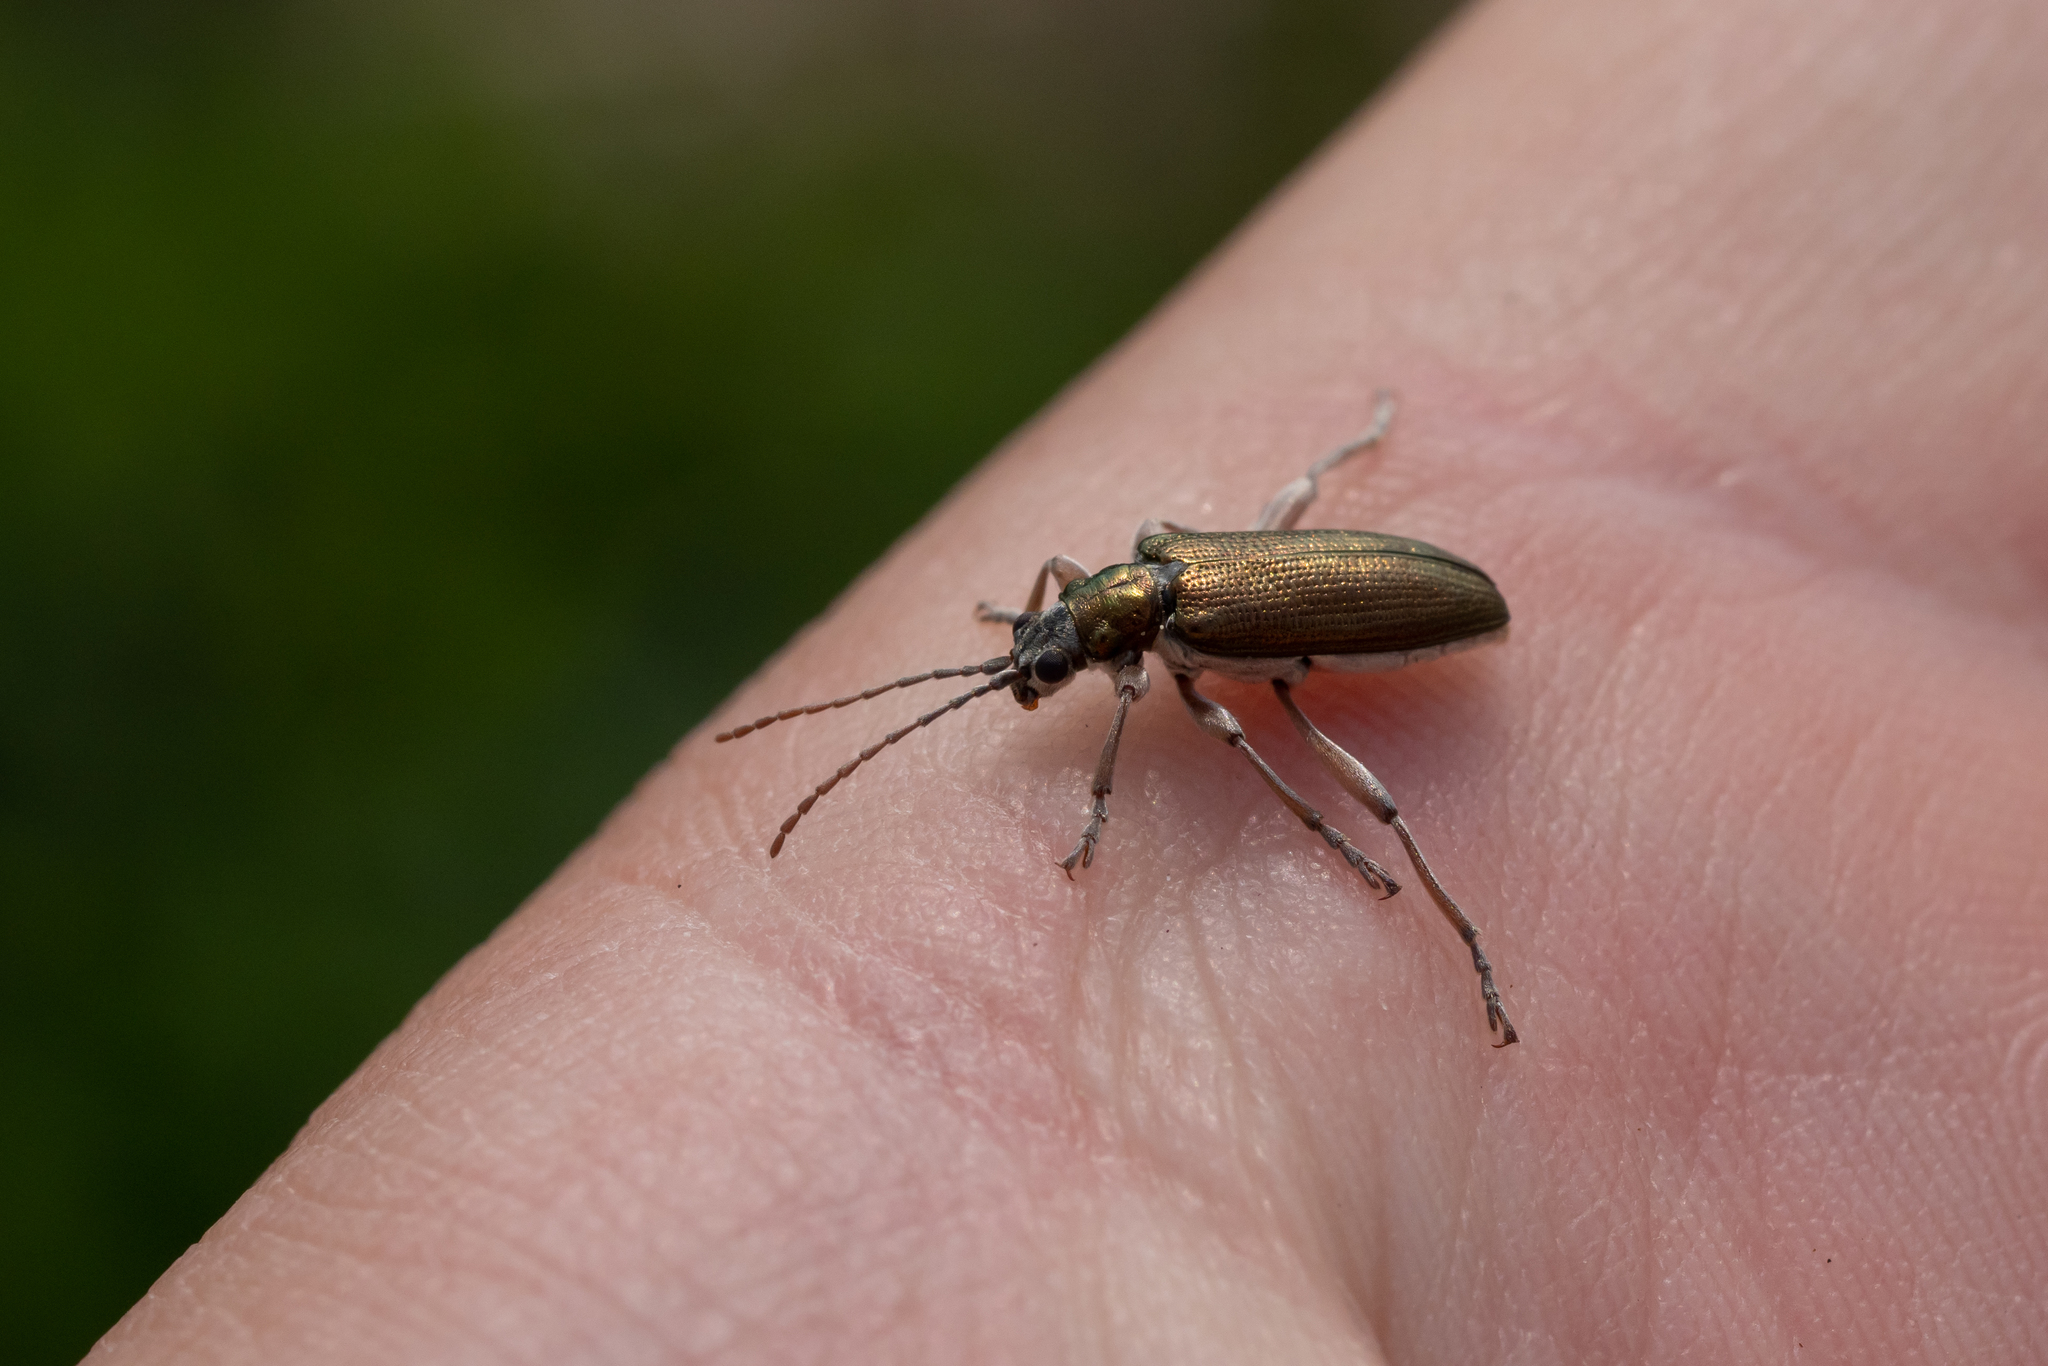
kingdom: Animalia
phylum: Arthropoda
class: Insecta
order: Coleoptera
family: Chrysomelidae
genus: Donacia
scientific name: Donacia clavipes
